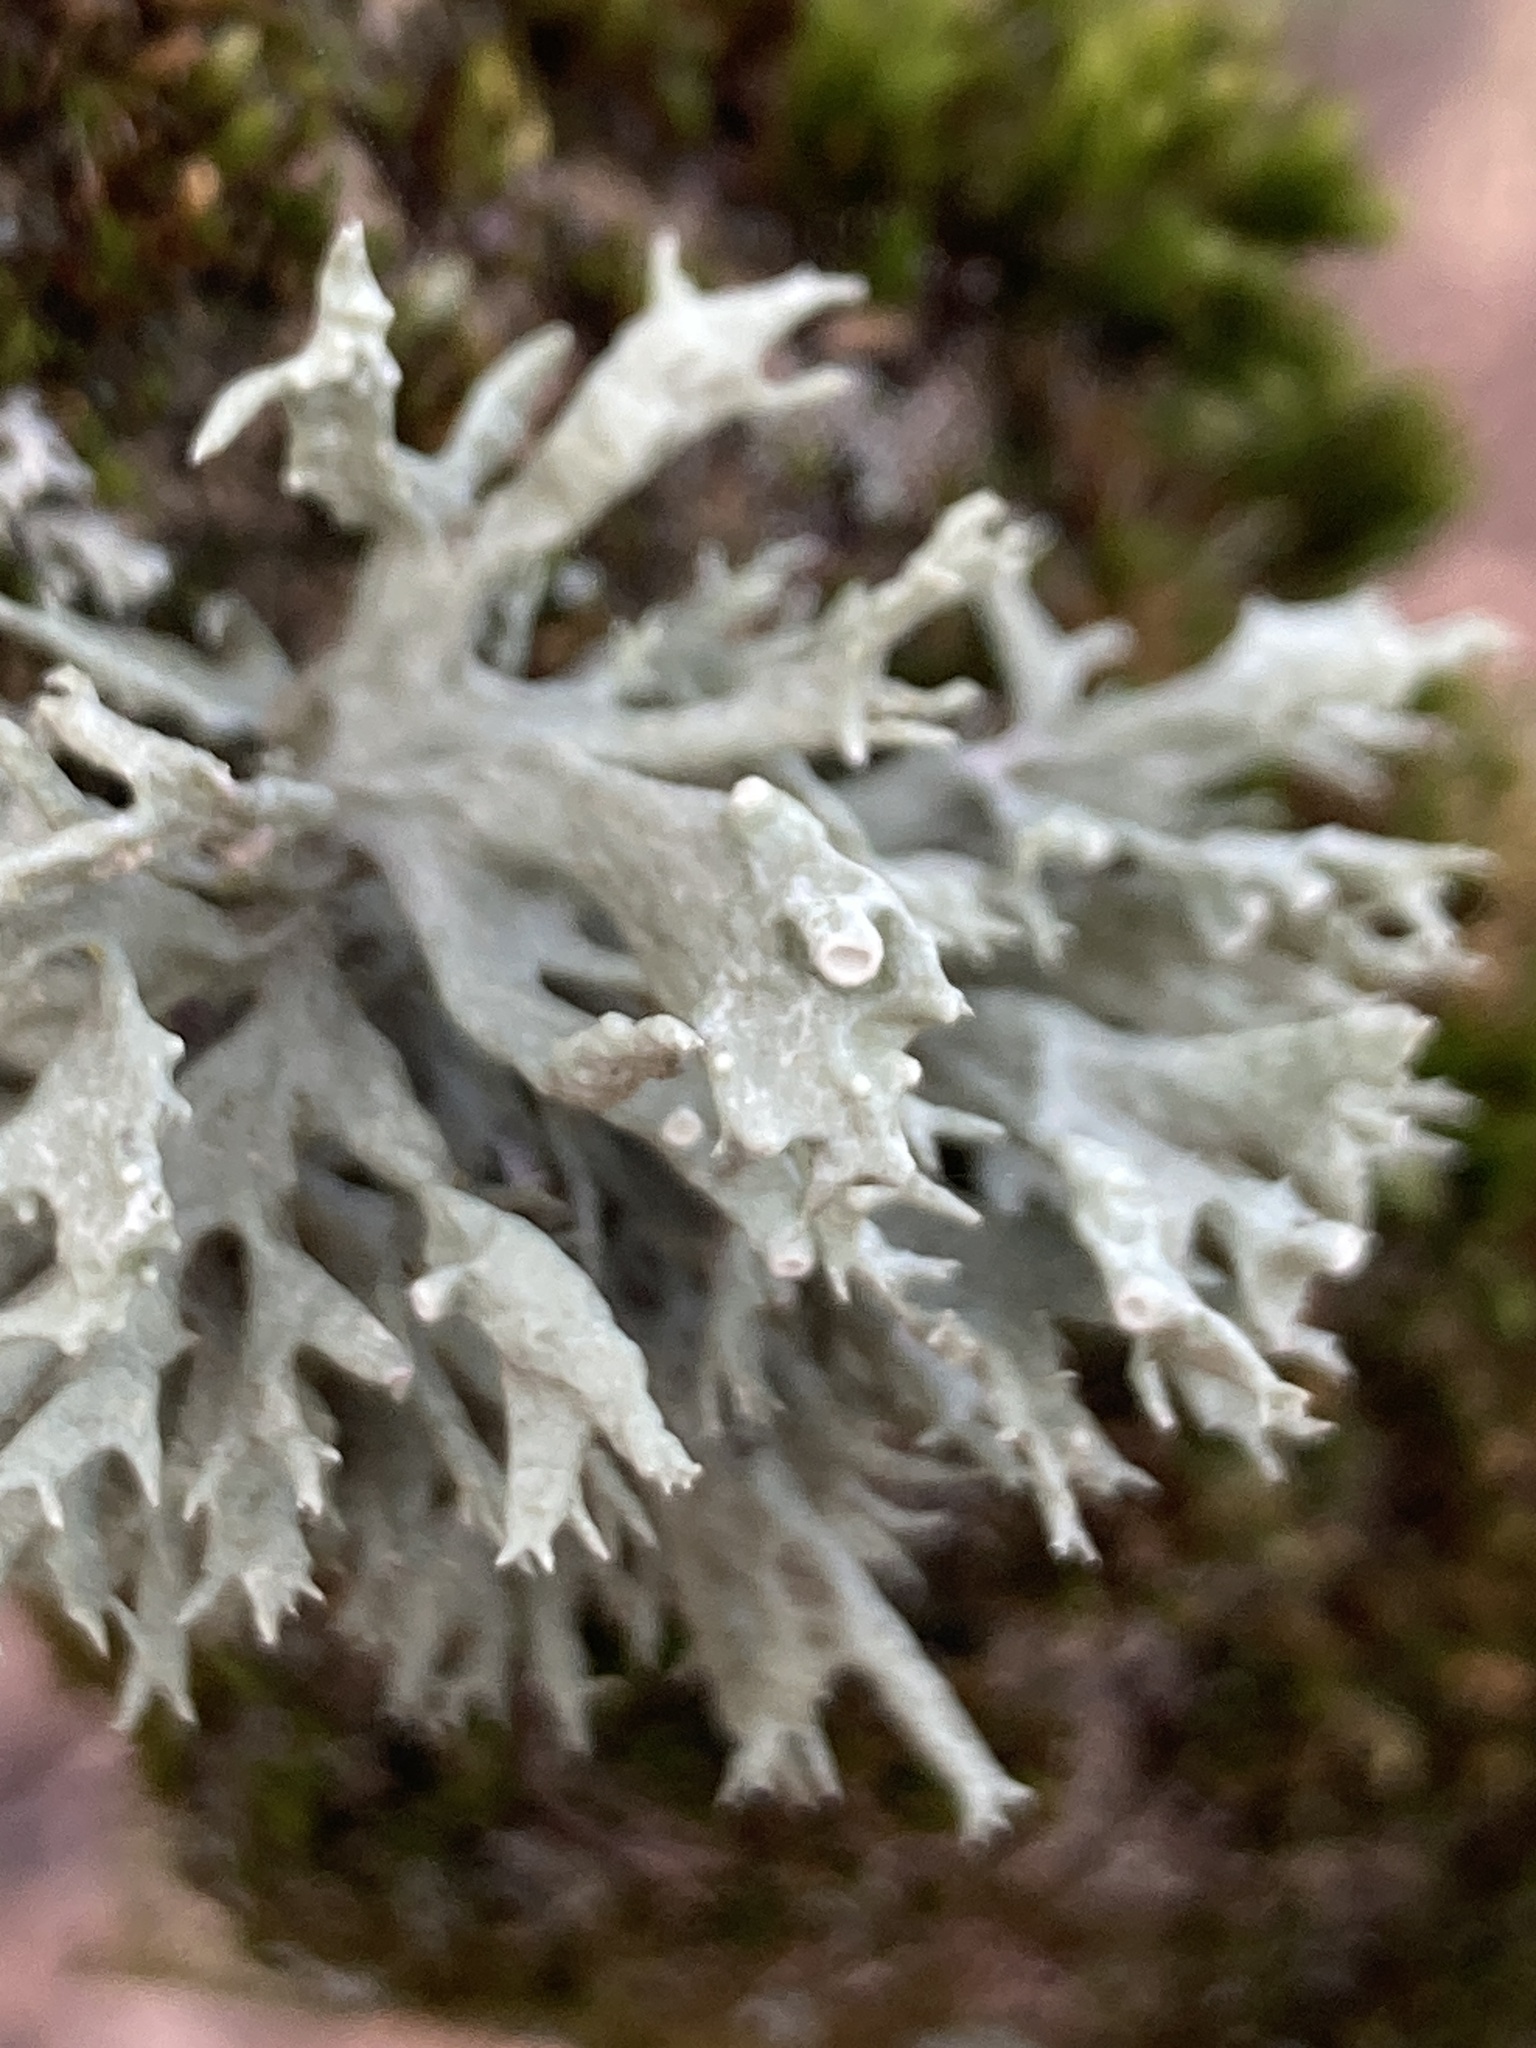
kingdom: Fungi
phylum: Ascomycota
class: Lecanoromycetes
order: Lecanorales
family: Ramalinaceae
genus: Ramalina
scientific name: Ramalina fastigiata
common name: Dotted ribbon lichen
